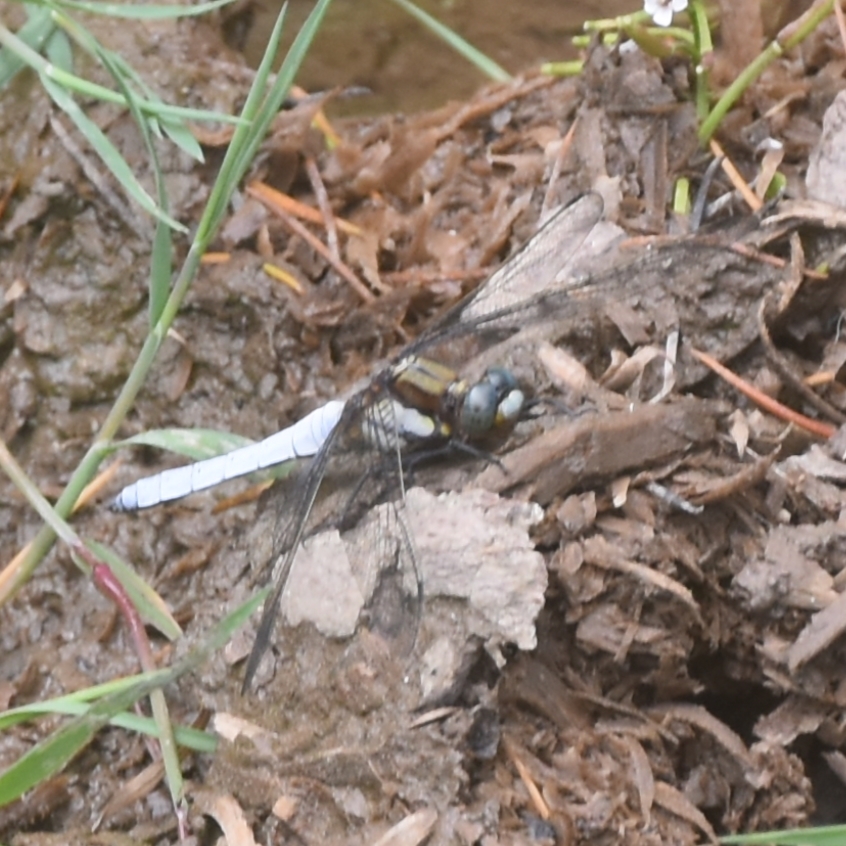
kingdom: Animalia
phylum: Arthropoda
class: Insecta
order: Odonata
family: Libellulidae
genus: Orthetrum
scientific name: Orthetrum internum
